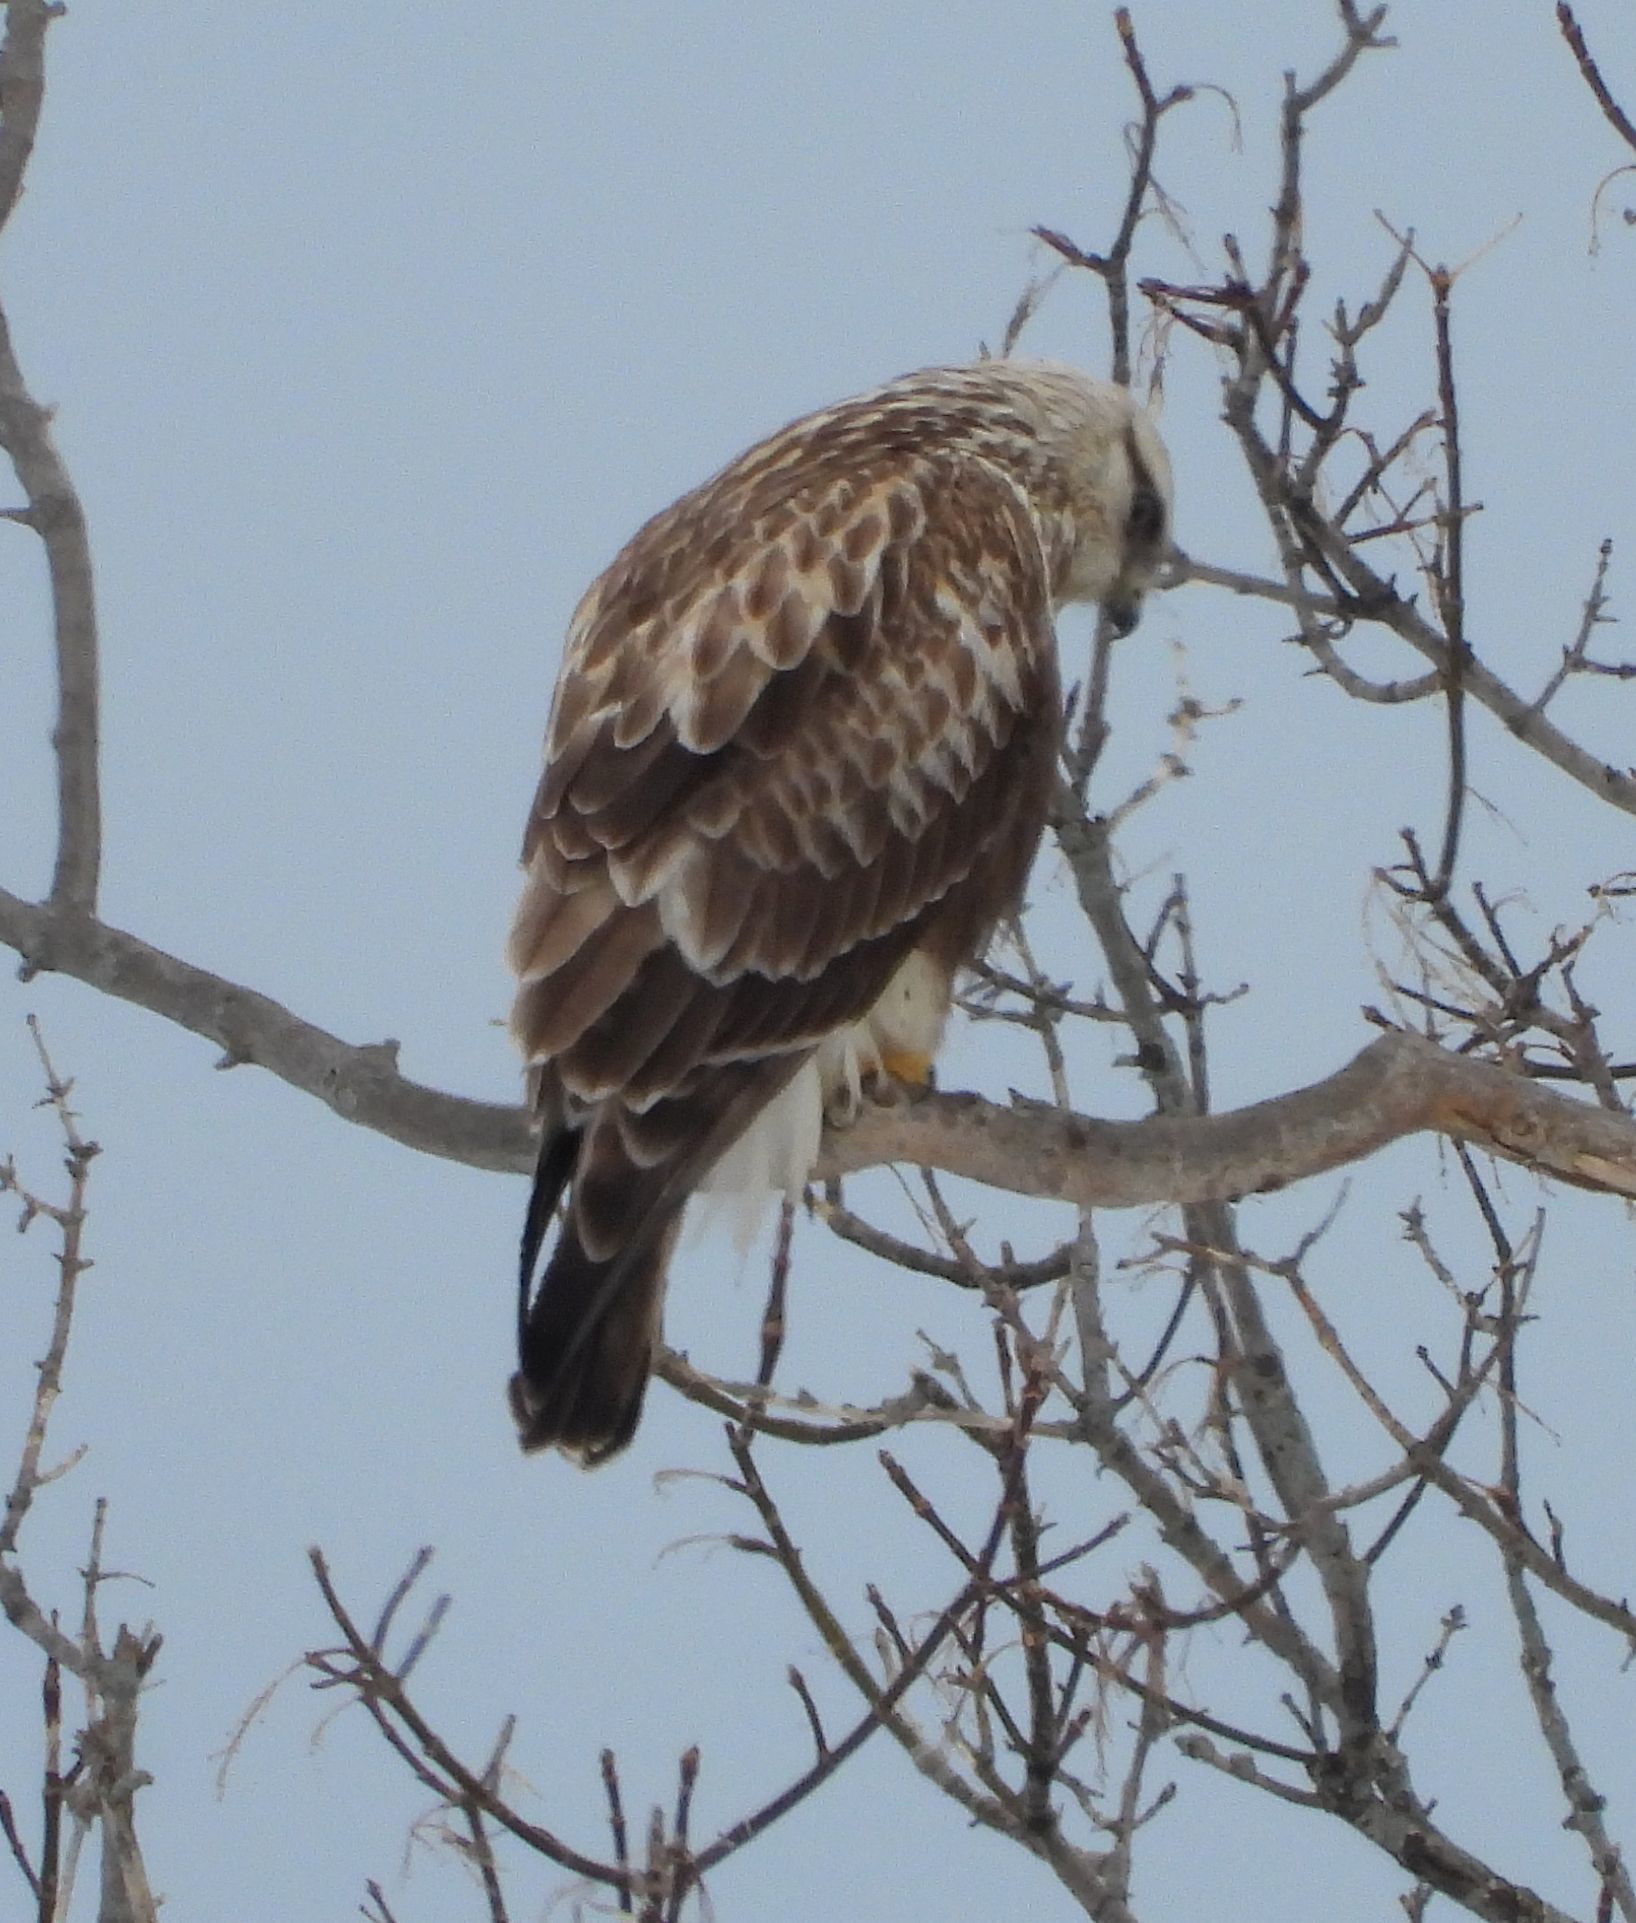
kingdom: Animalia
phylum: Chordata
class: Aves
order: Accipitriformes
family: Accipitridae
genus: Buteo
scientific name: Buteo lagopus
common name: Rough-legged buzzard
